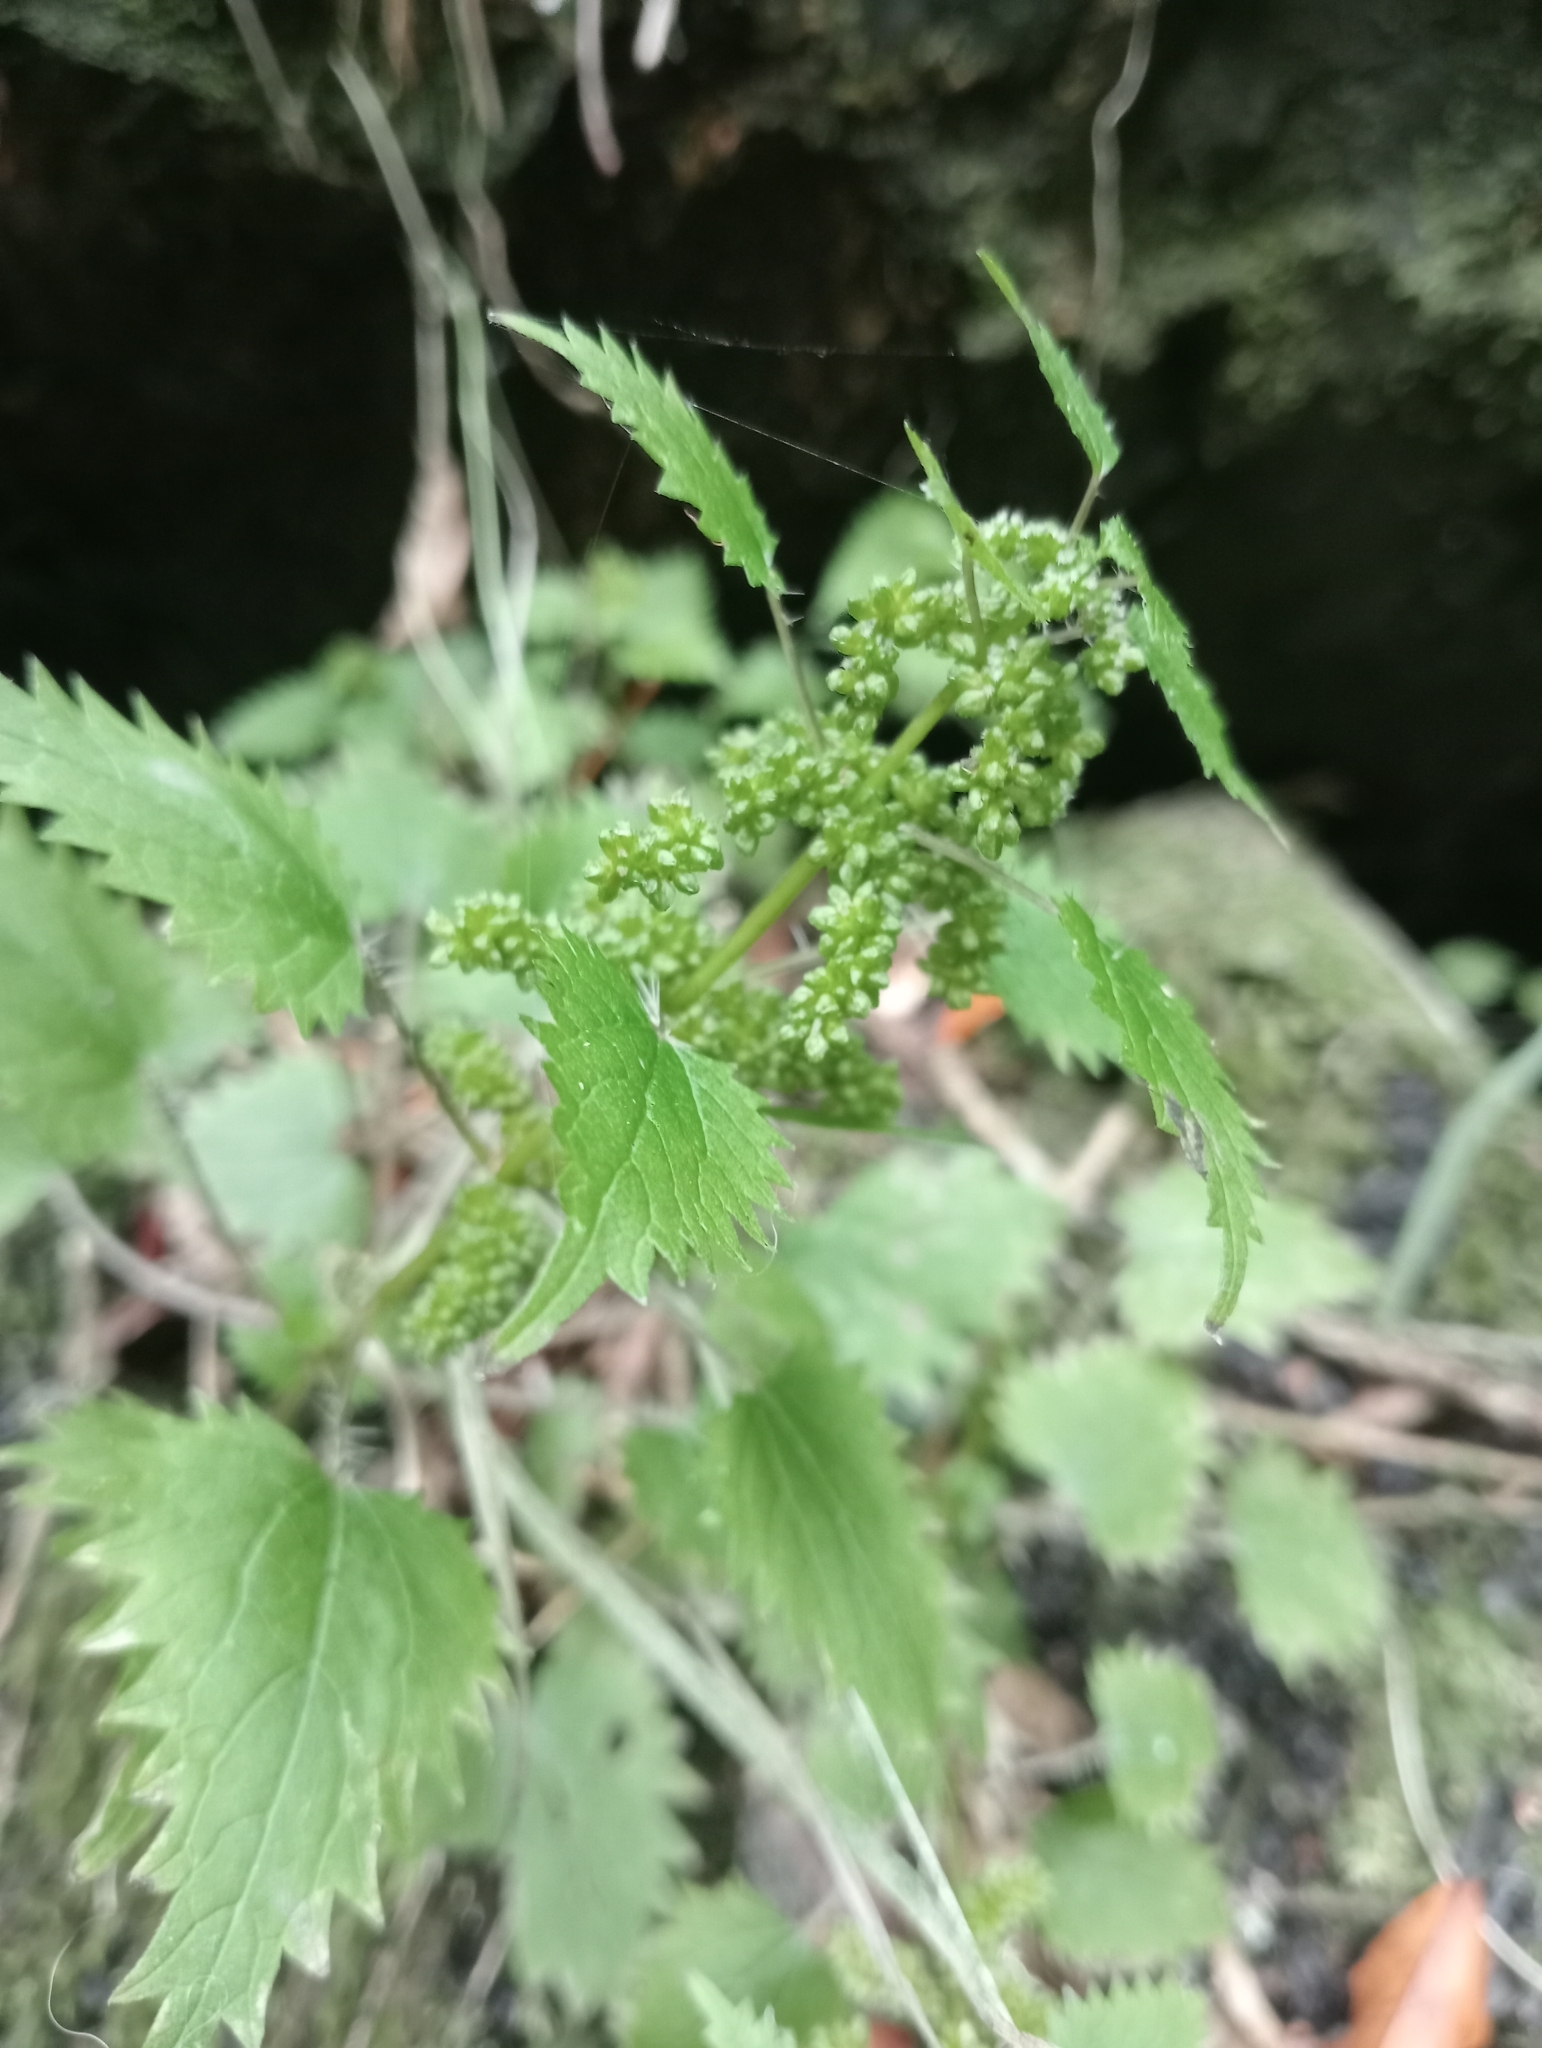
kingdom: Plantae
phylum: Tracheophyta
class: Magnoliopsida
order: Rosales
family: Urticaceae
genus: Urtica
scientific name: Urtica sykesii
